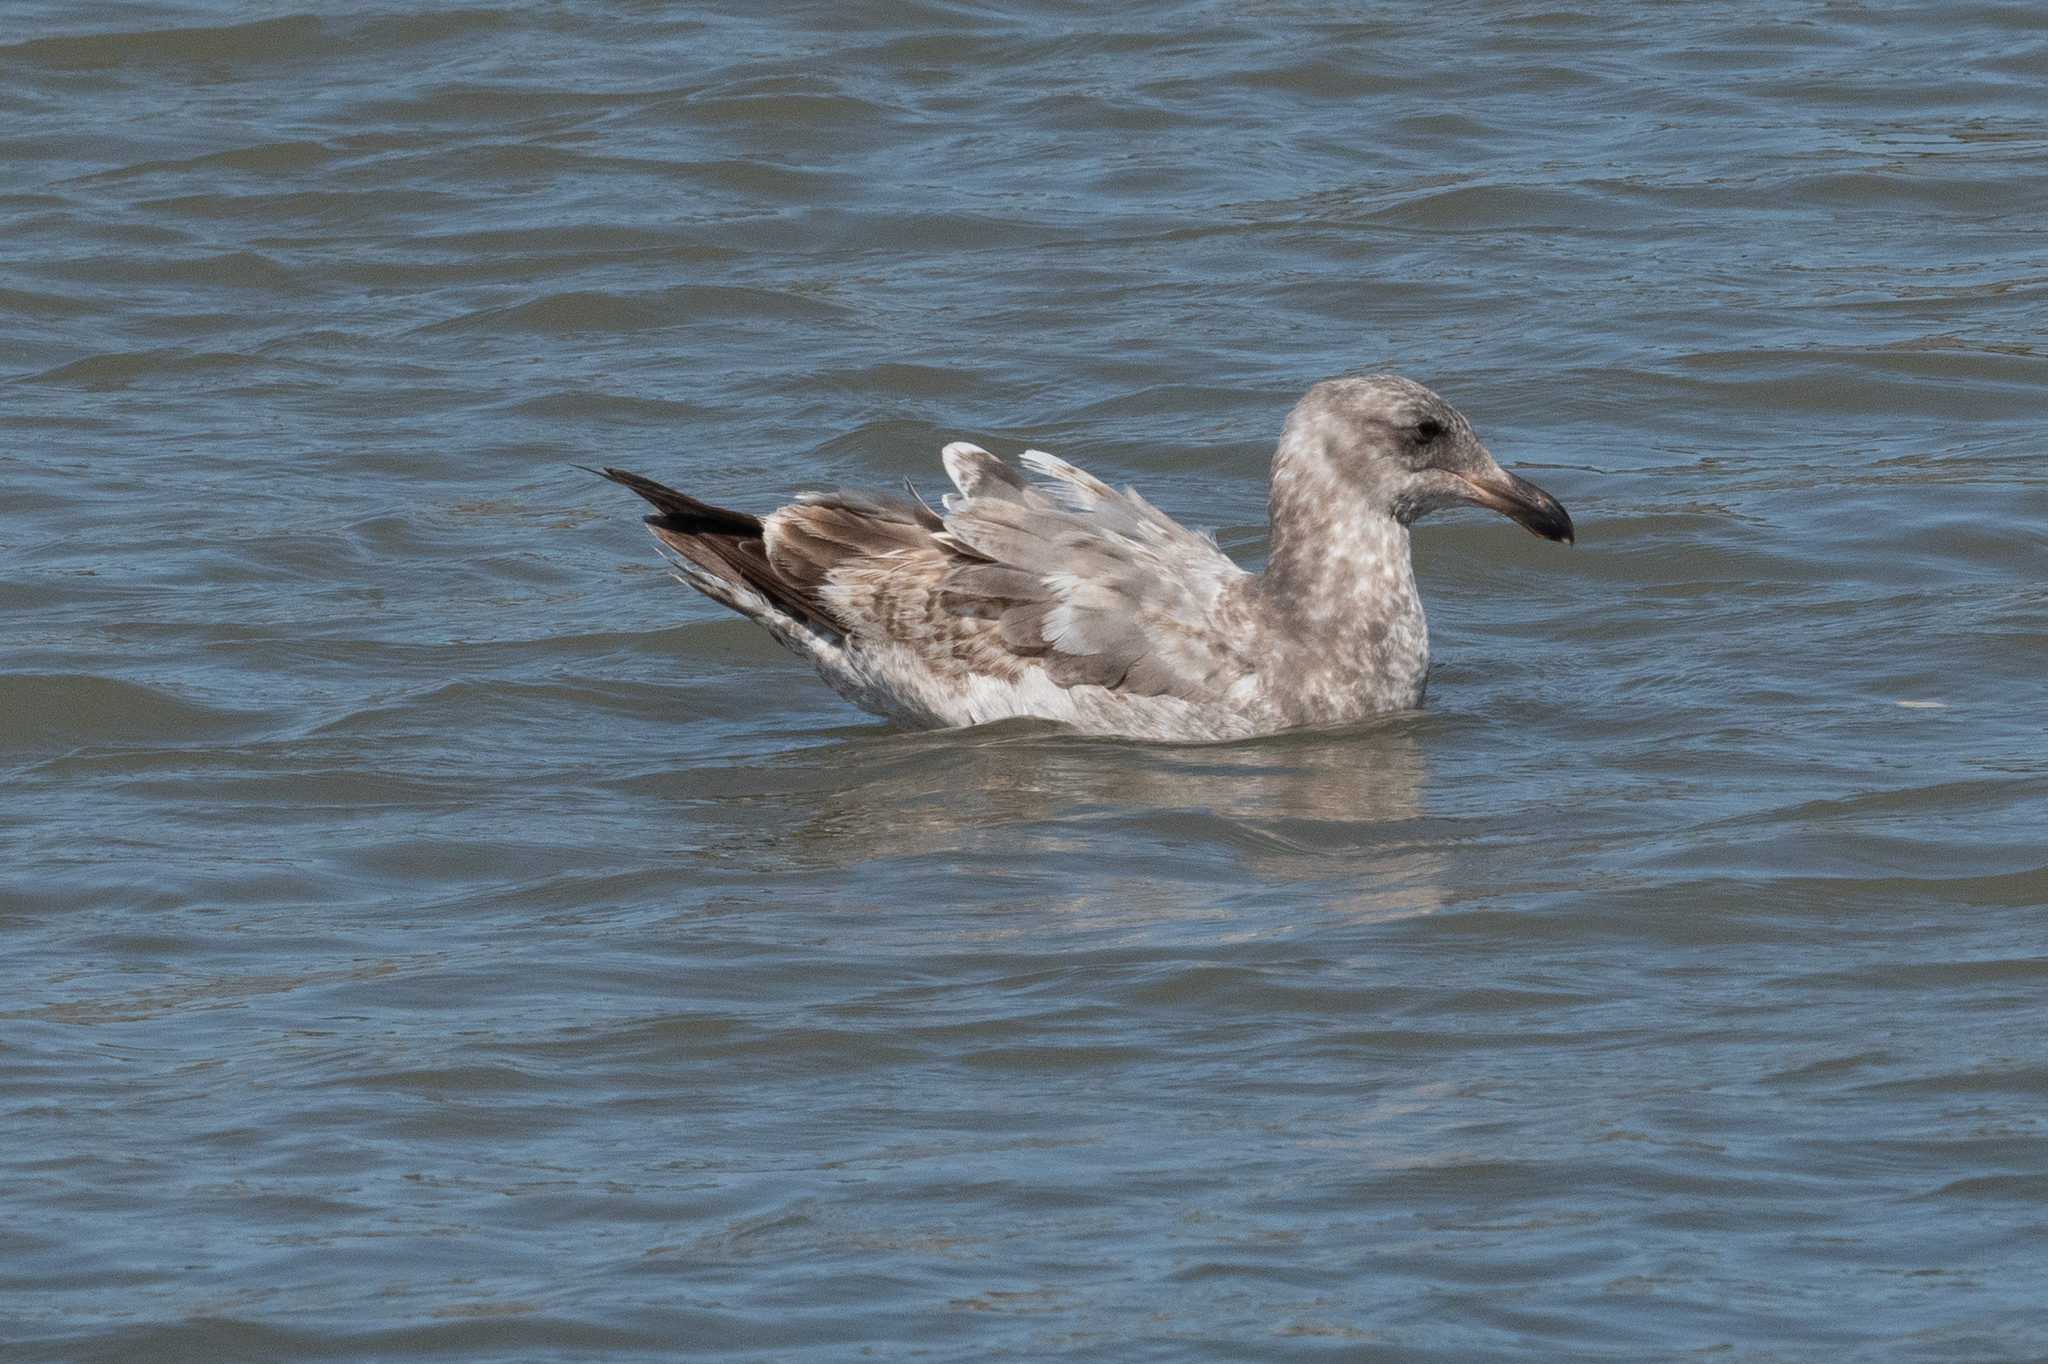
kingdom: Animalia
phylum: Chordata
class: Aves
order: Charadriiformes
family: Laridae
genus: Larus
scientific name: Larus occidentalis
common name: Western gull
